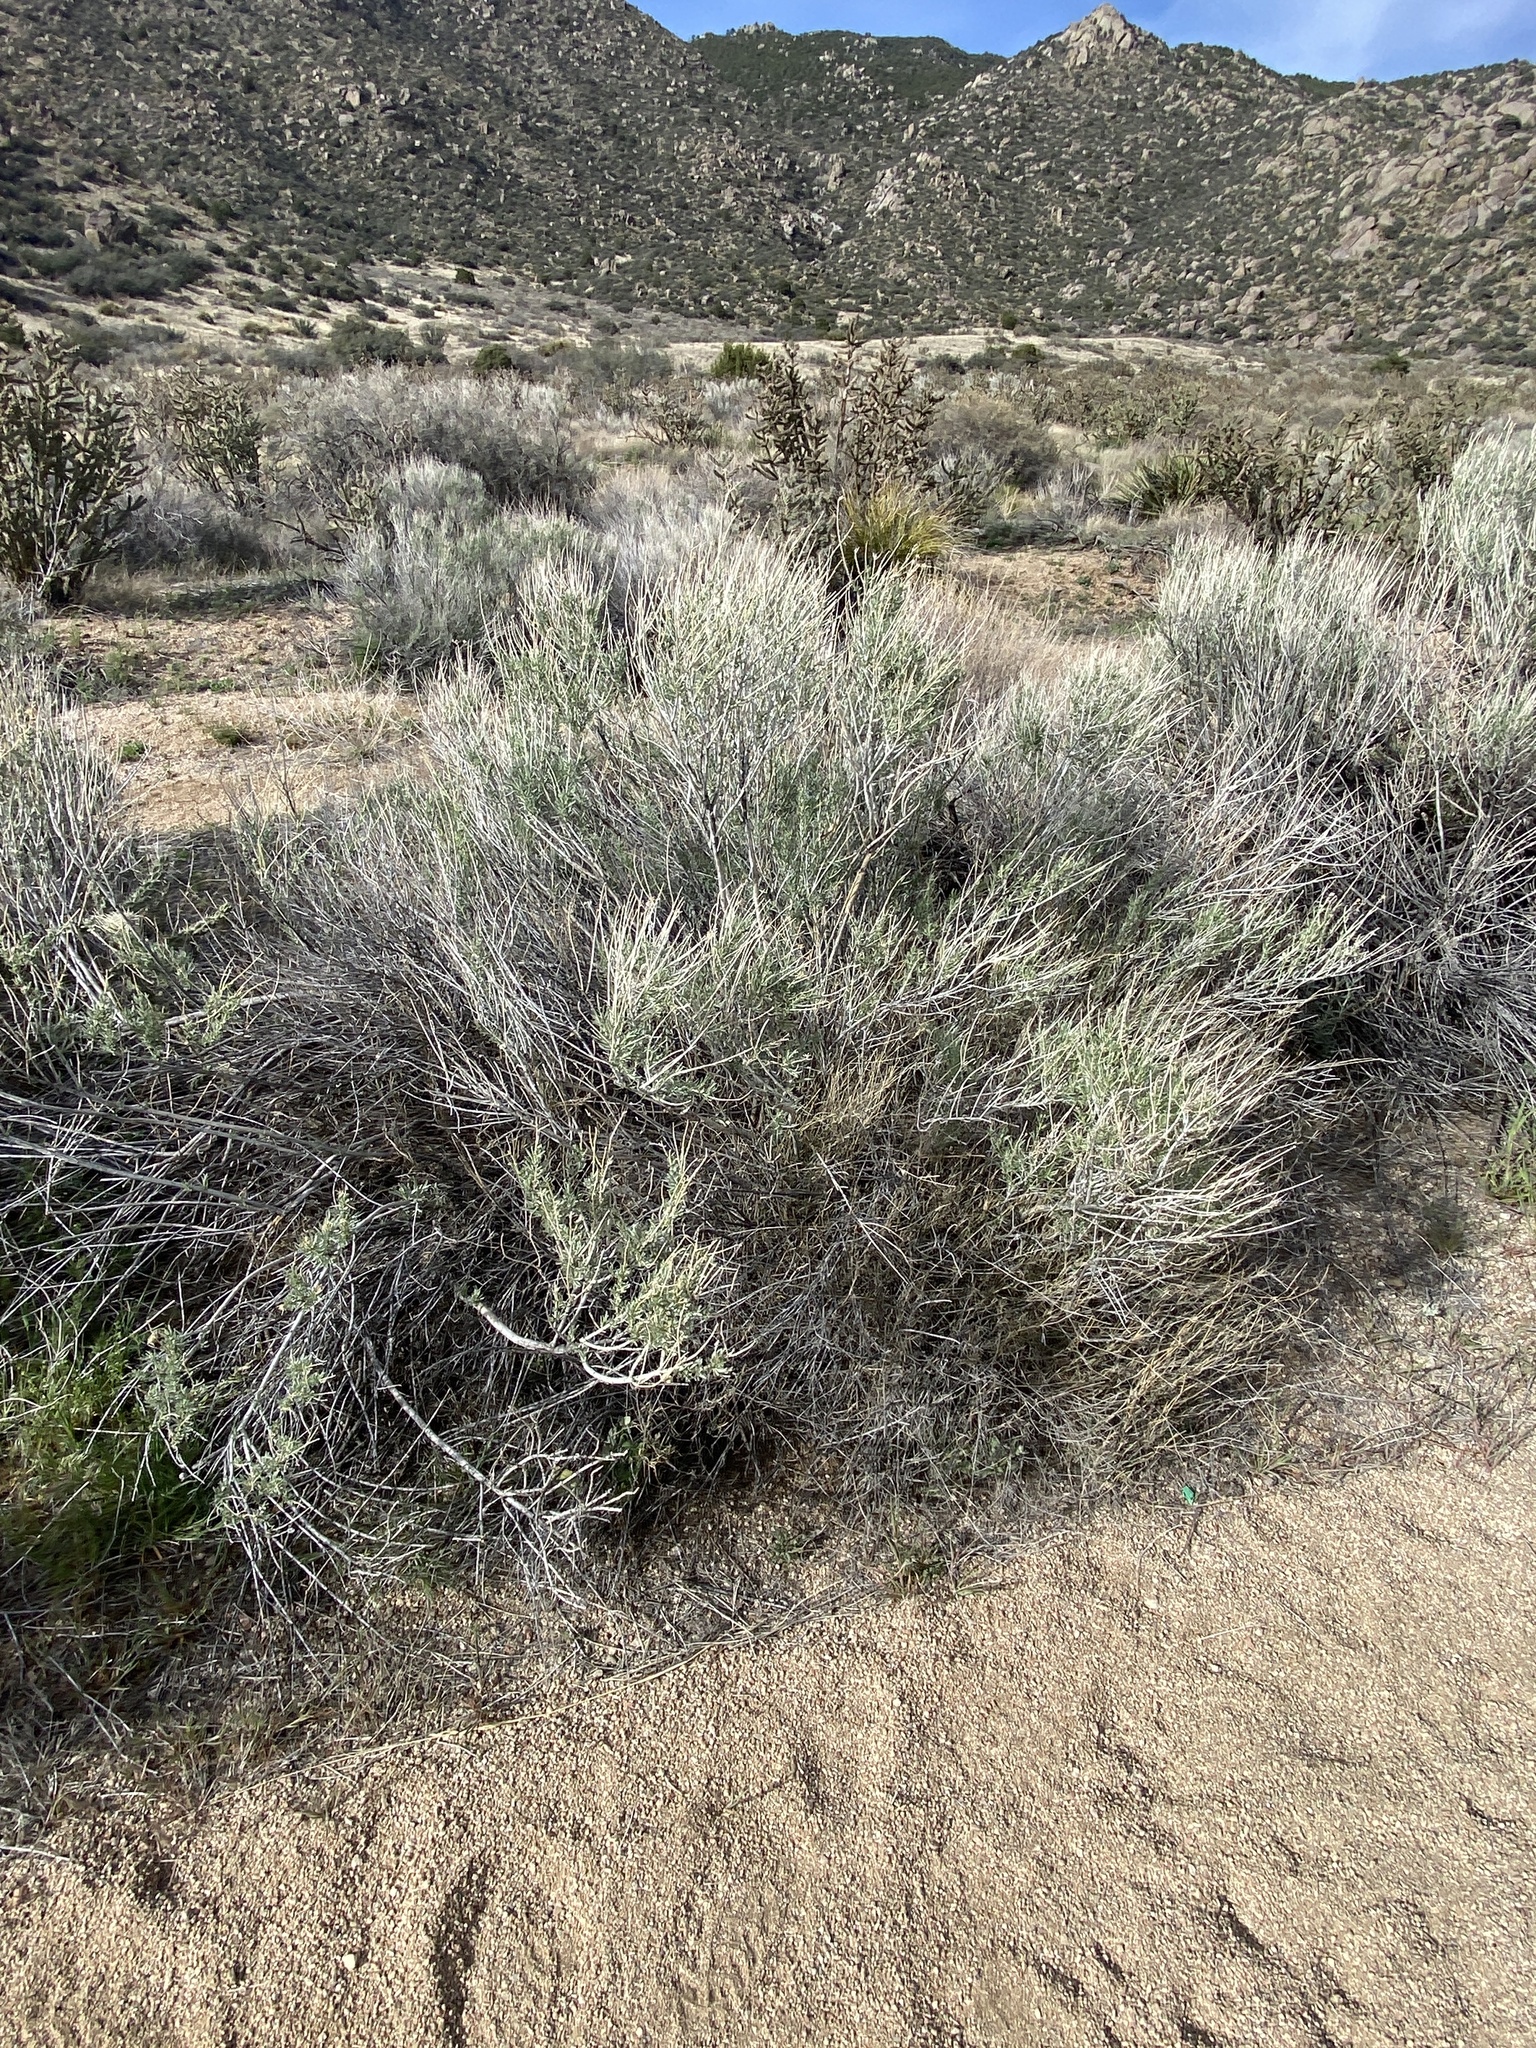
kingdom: Plantae
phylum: Tracheophyta
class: Magnoliopsida
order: Asterales
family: Asteraceae
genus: Ericameria
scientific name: Ericameria nauseosa
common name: Rubber rabbitbrush
